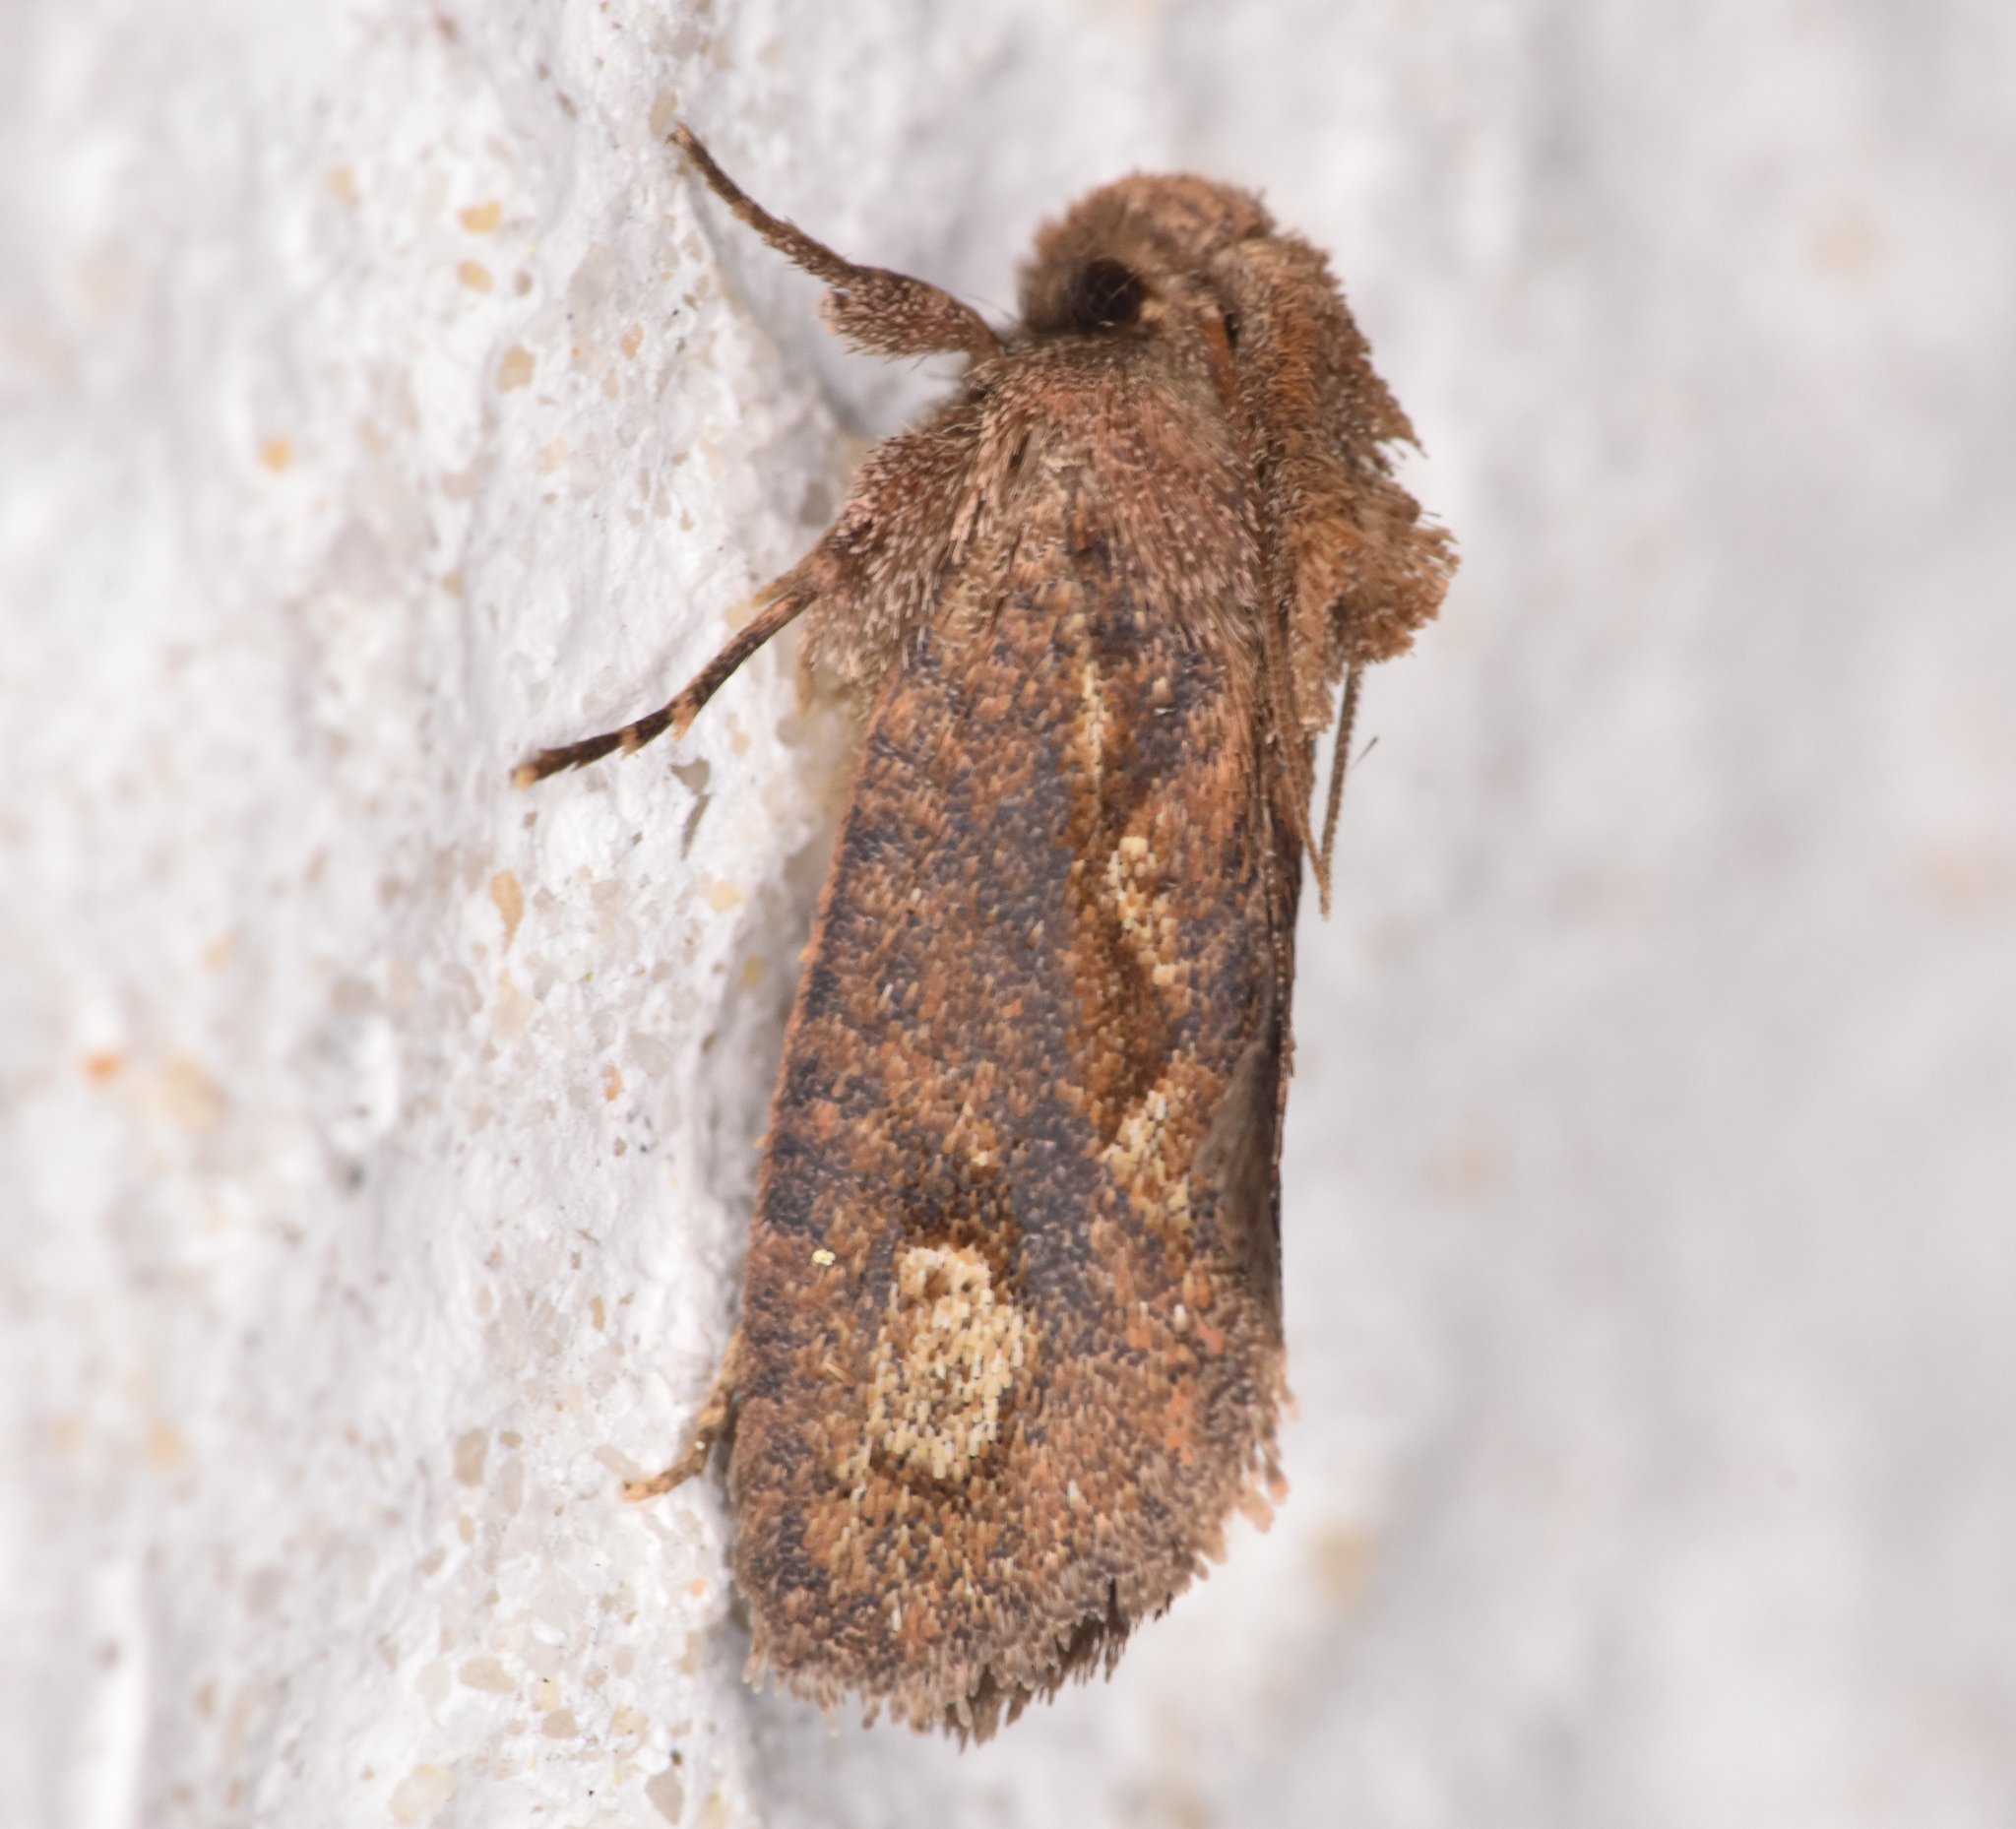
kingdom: Animalia
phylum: Arthropoda
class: Insecta
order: Lepidoptera
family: Tineidae
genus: Acrolophus
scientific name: Acrolophus walsinghami
